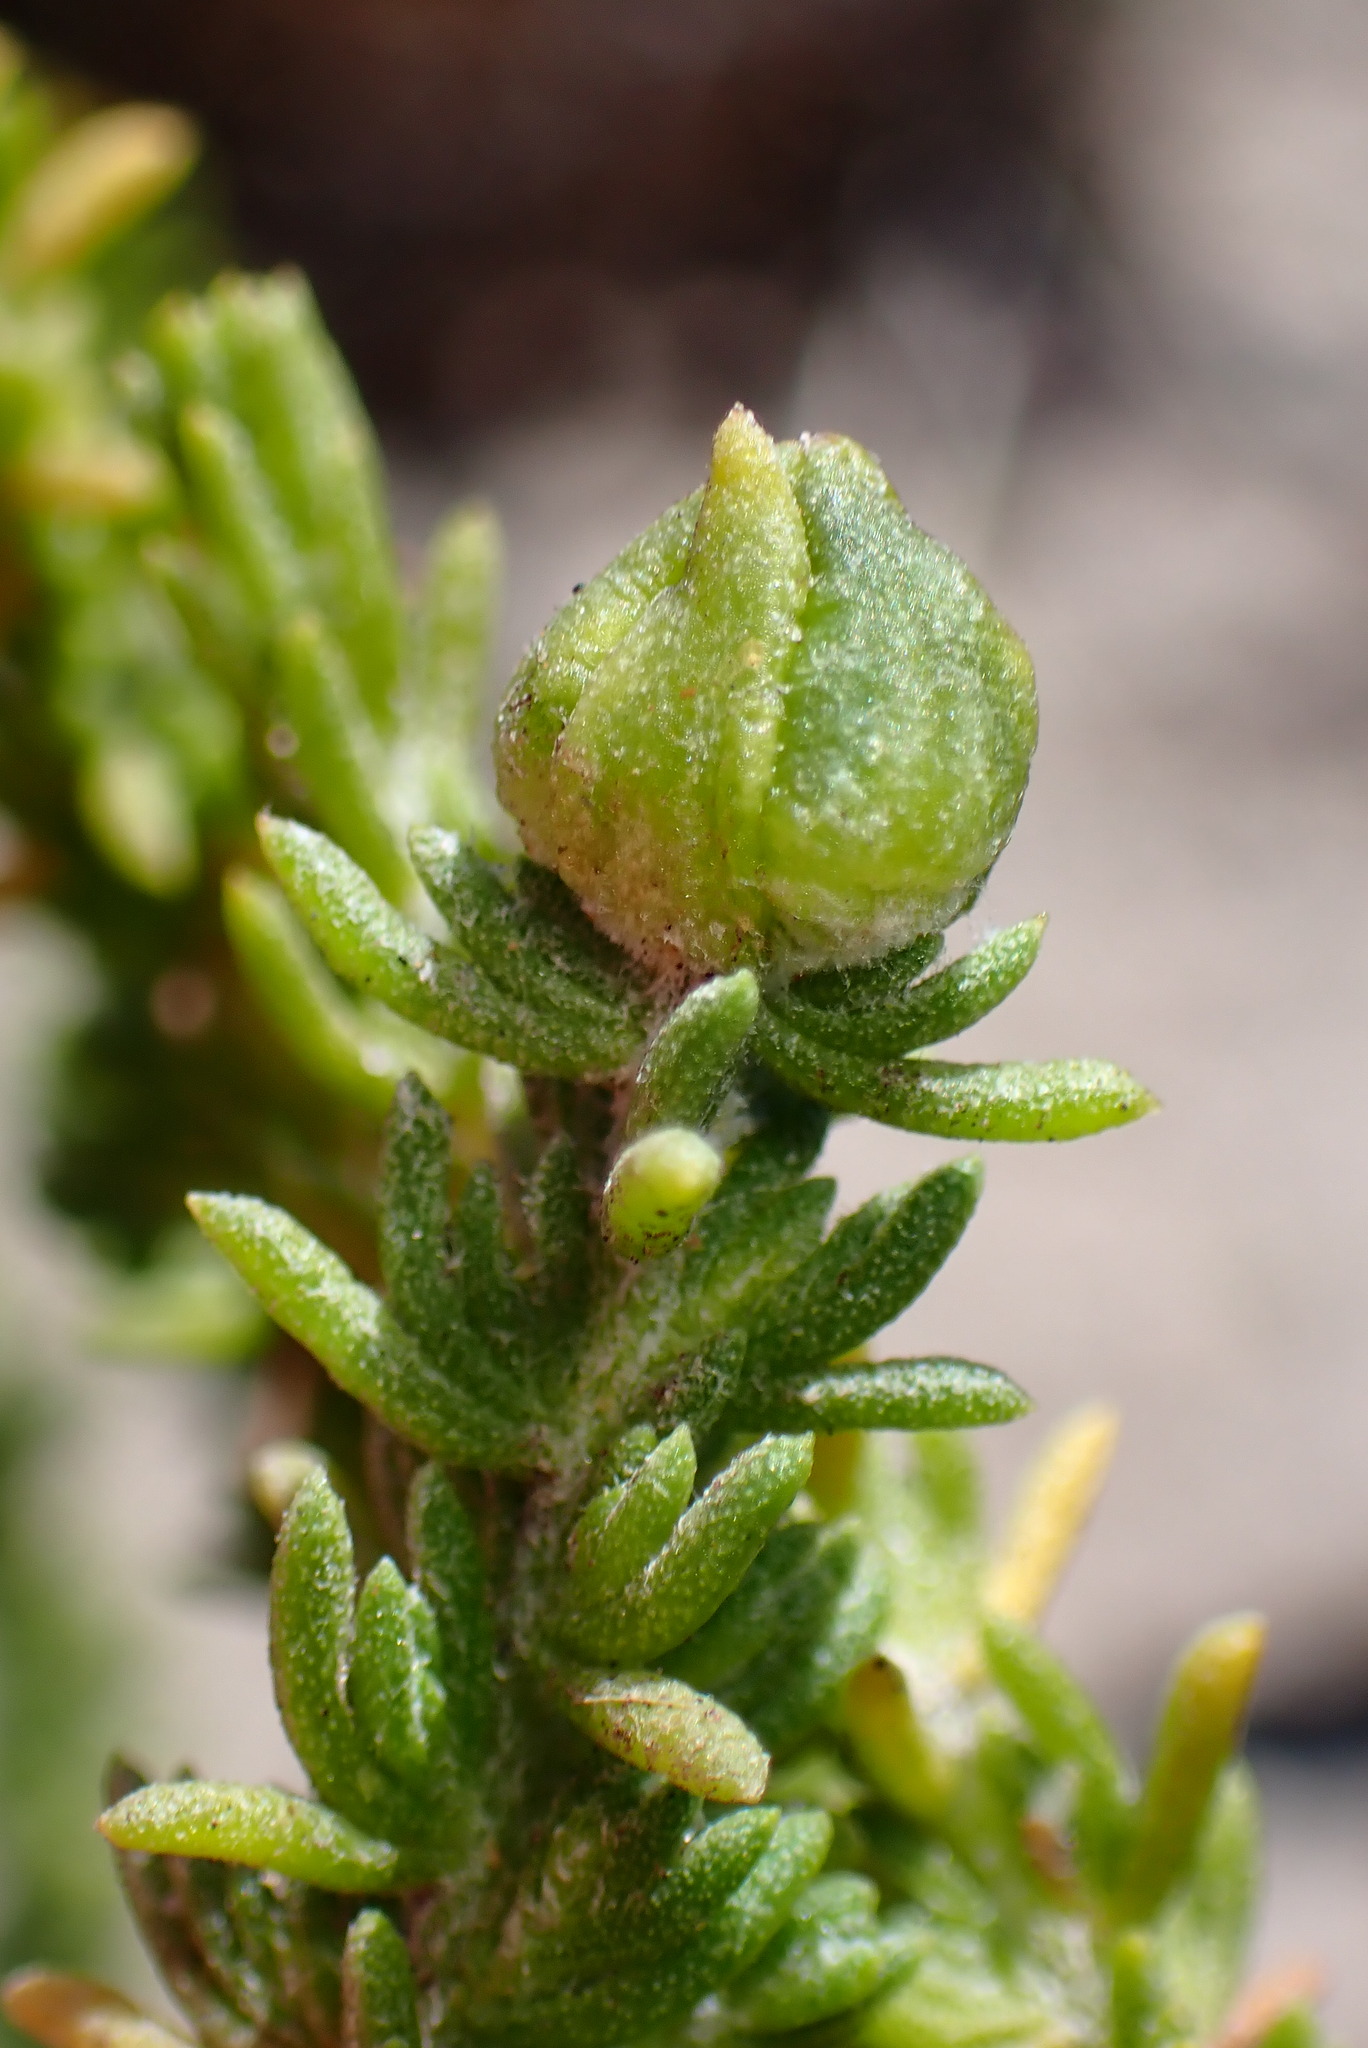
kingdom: Animalia
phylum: Arthropoda
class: Insecta
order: Diptera
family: Cecidomyiidae
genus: Prodiplosis
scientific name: Prodiplosis falcata
